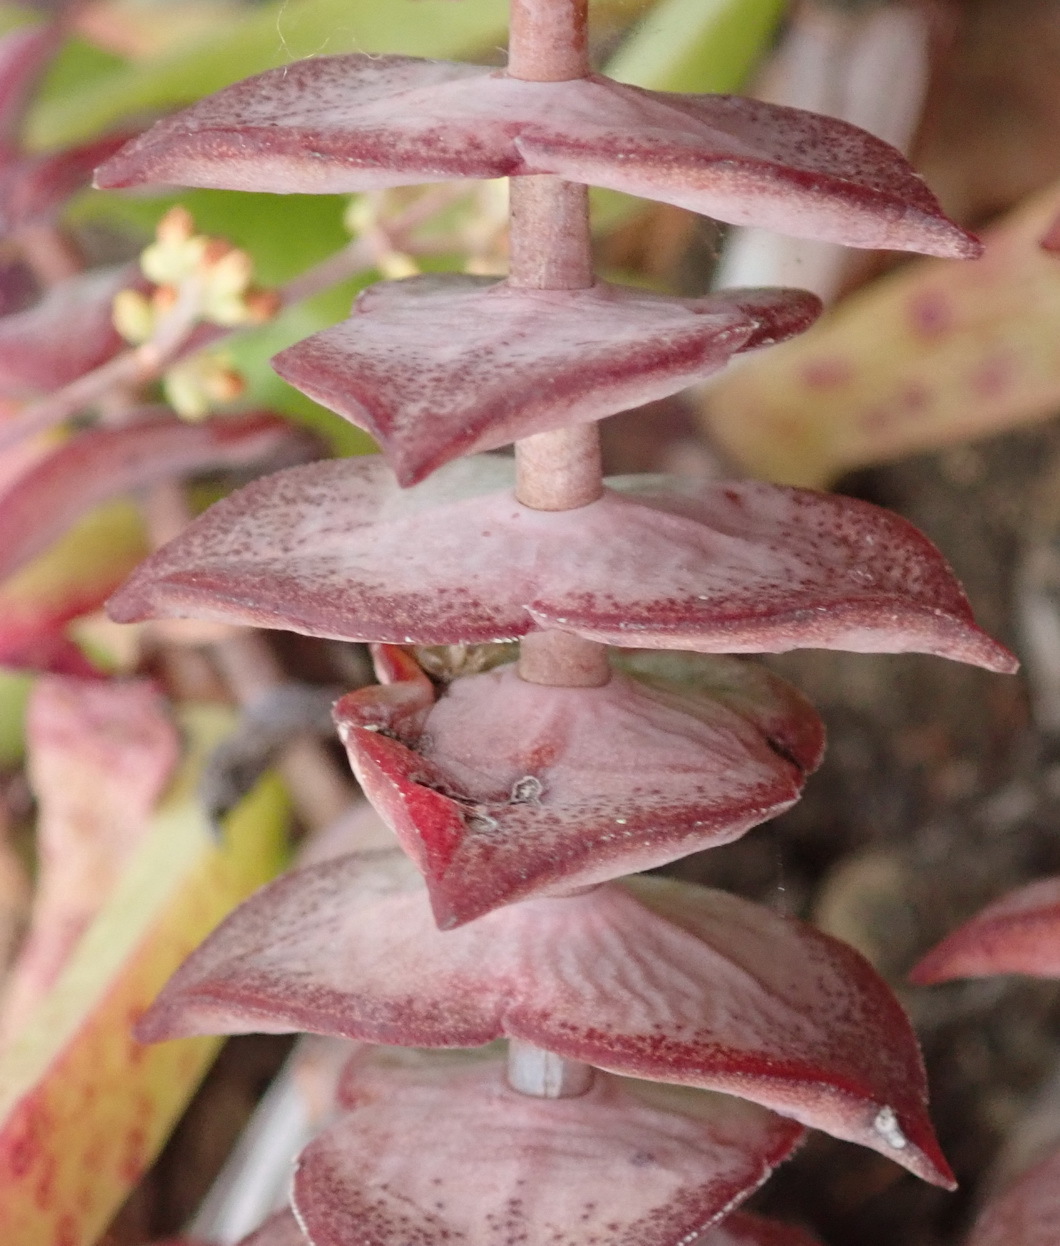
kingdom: Plantae
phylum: Tracheophyta
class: Magnoliopsida
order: Saxifragales
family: Crassulaceae
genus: Crassula
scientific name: Crassula perforata
